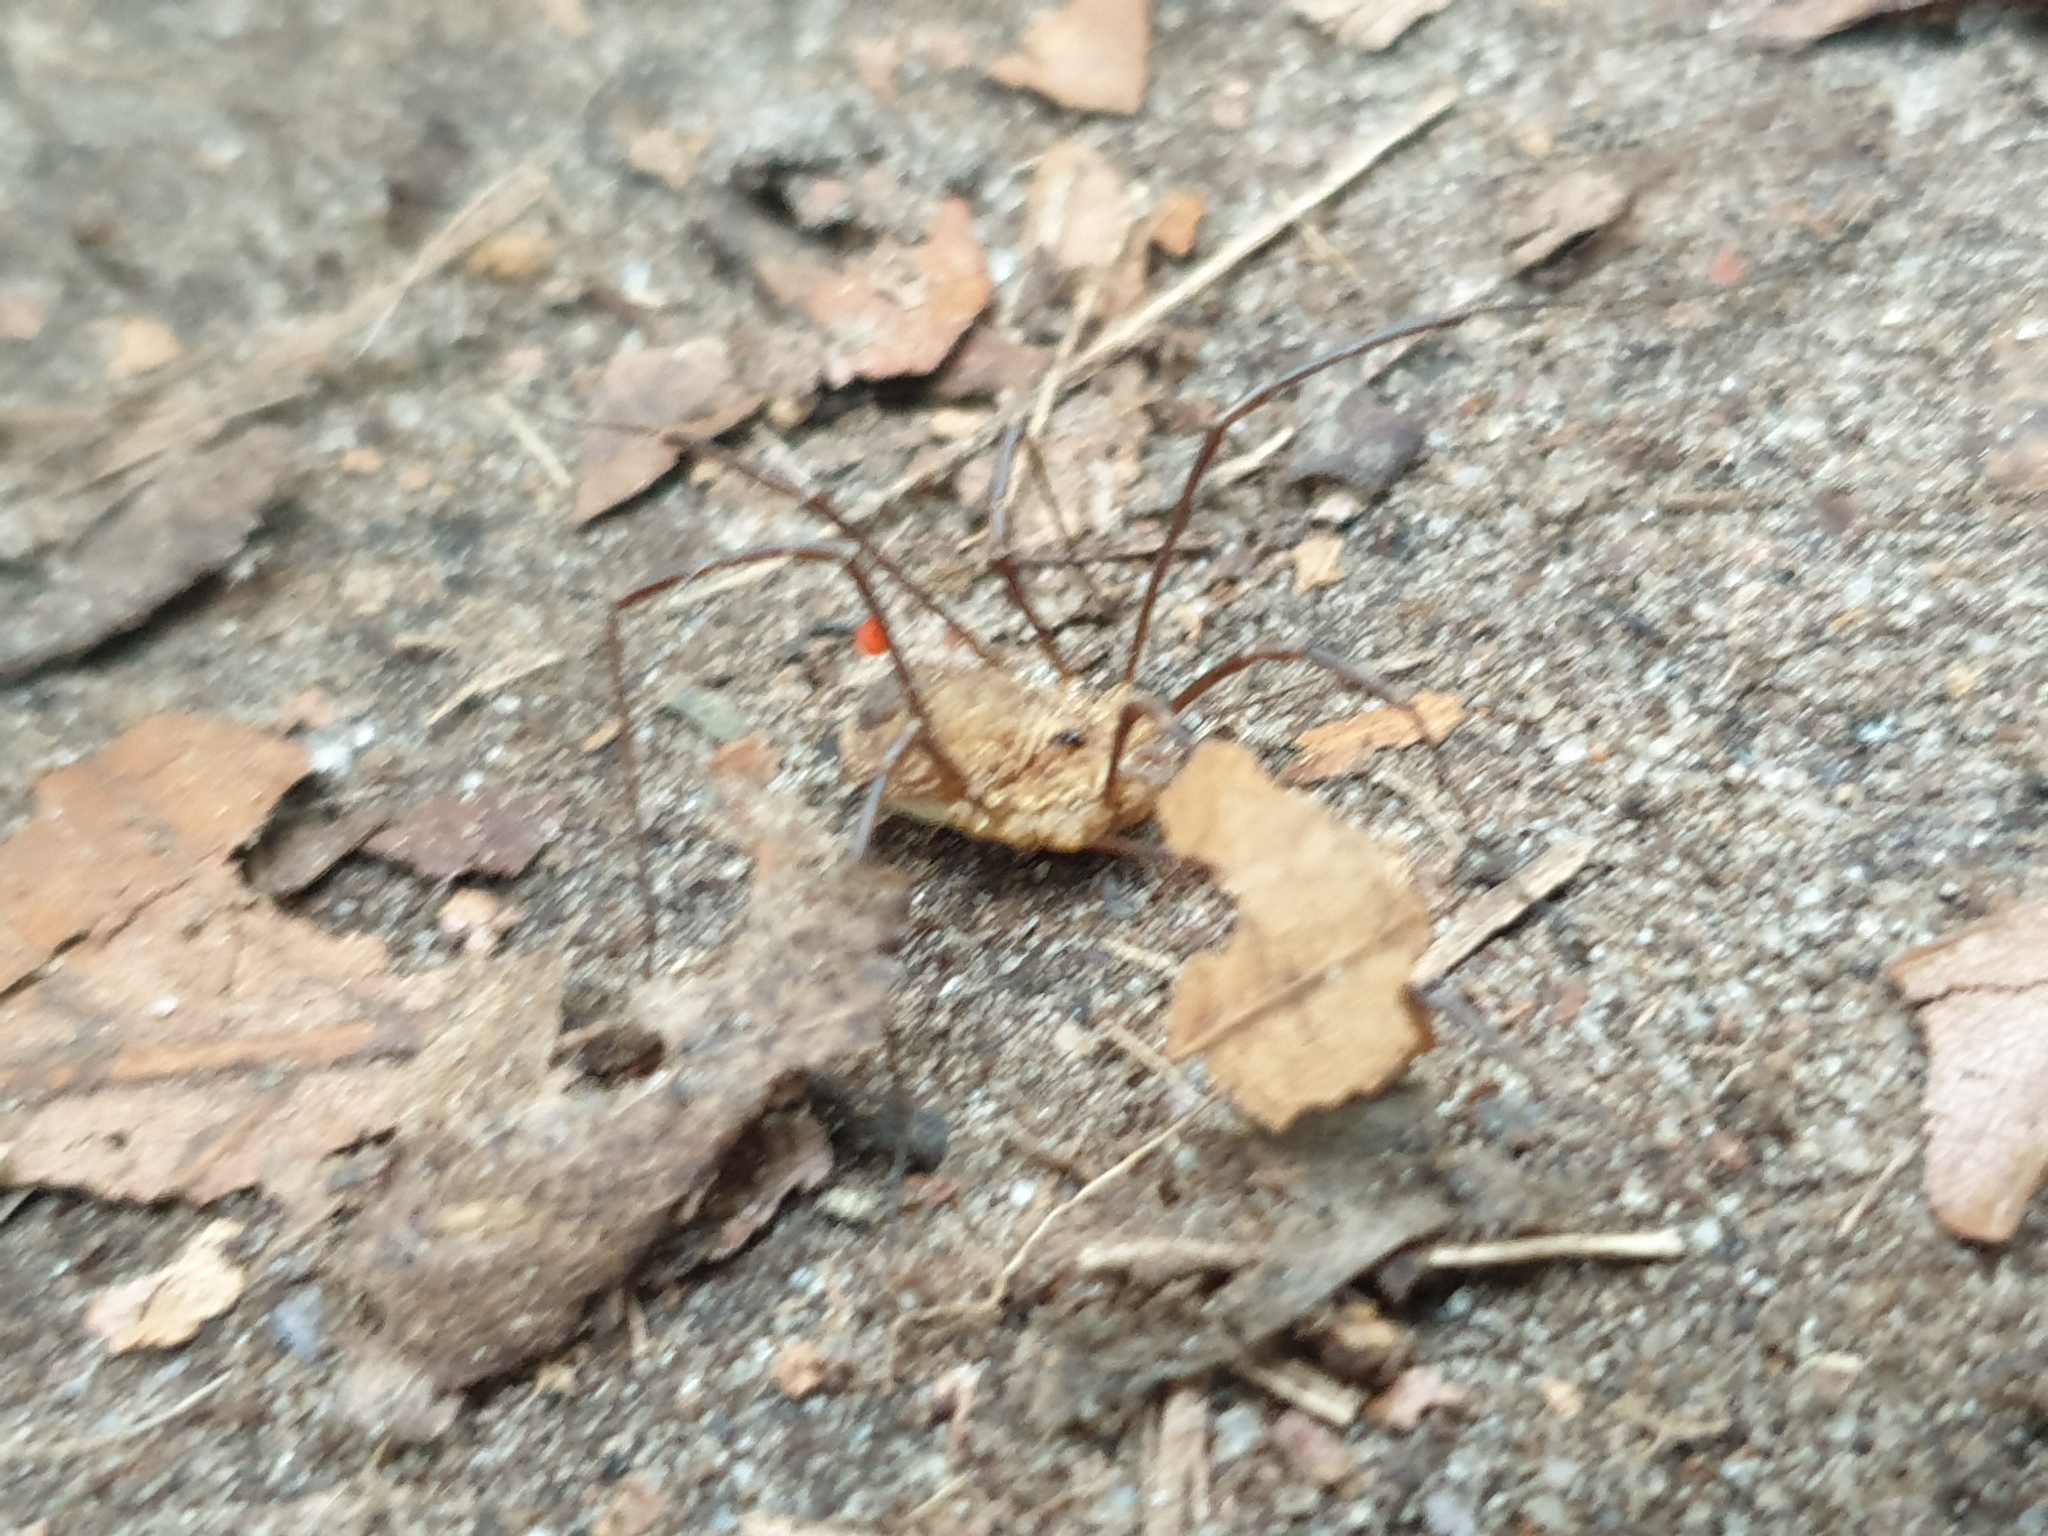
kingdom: Animalia
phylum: Arthropoda
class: Arachnida
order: Opiliones
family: Phalangiidae
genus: Rilaena
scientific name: Rilaena triangularis
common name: Spring harvestman
